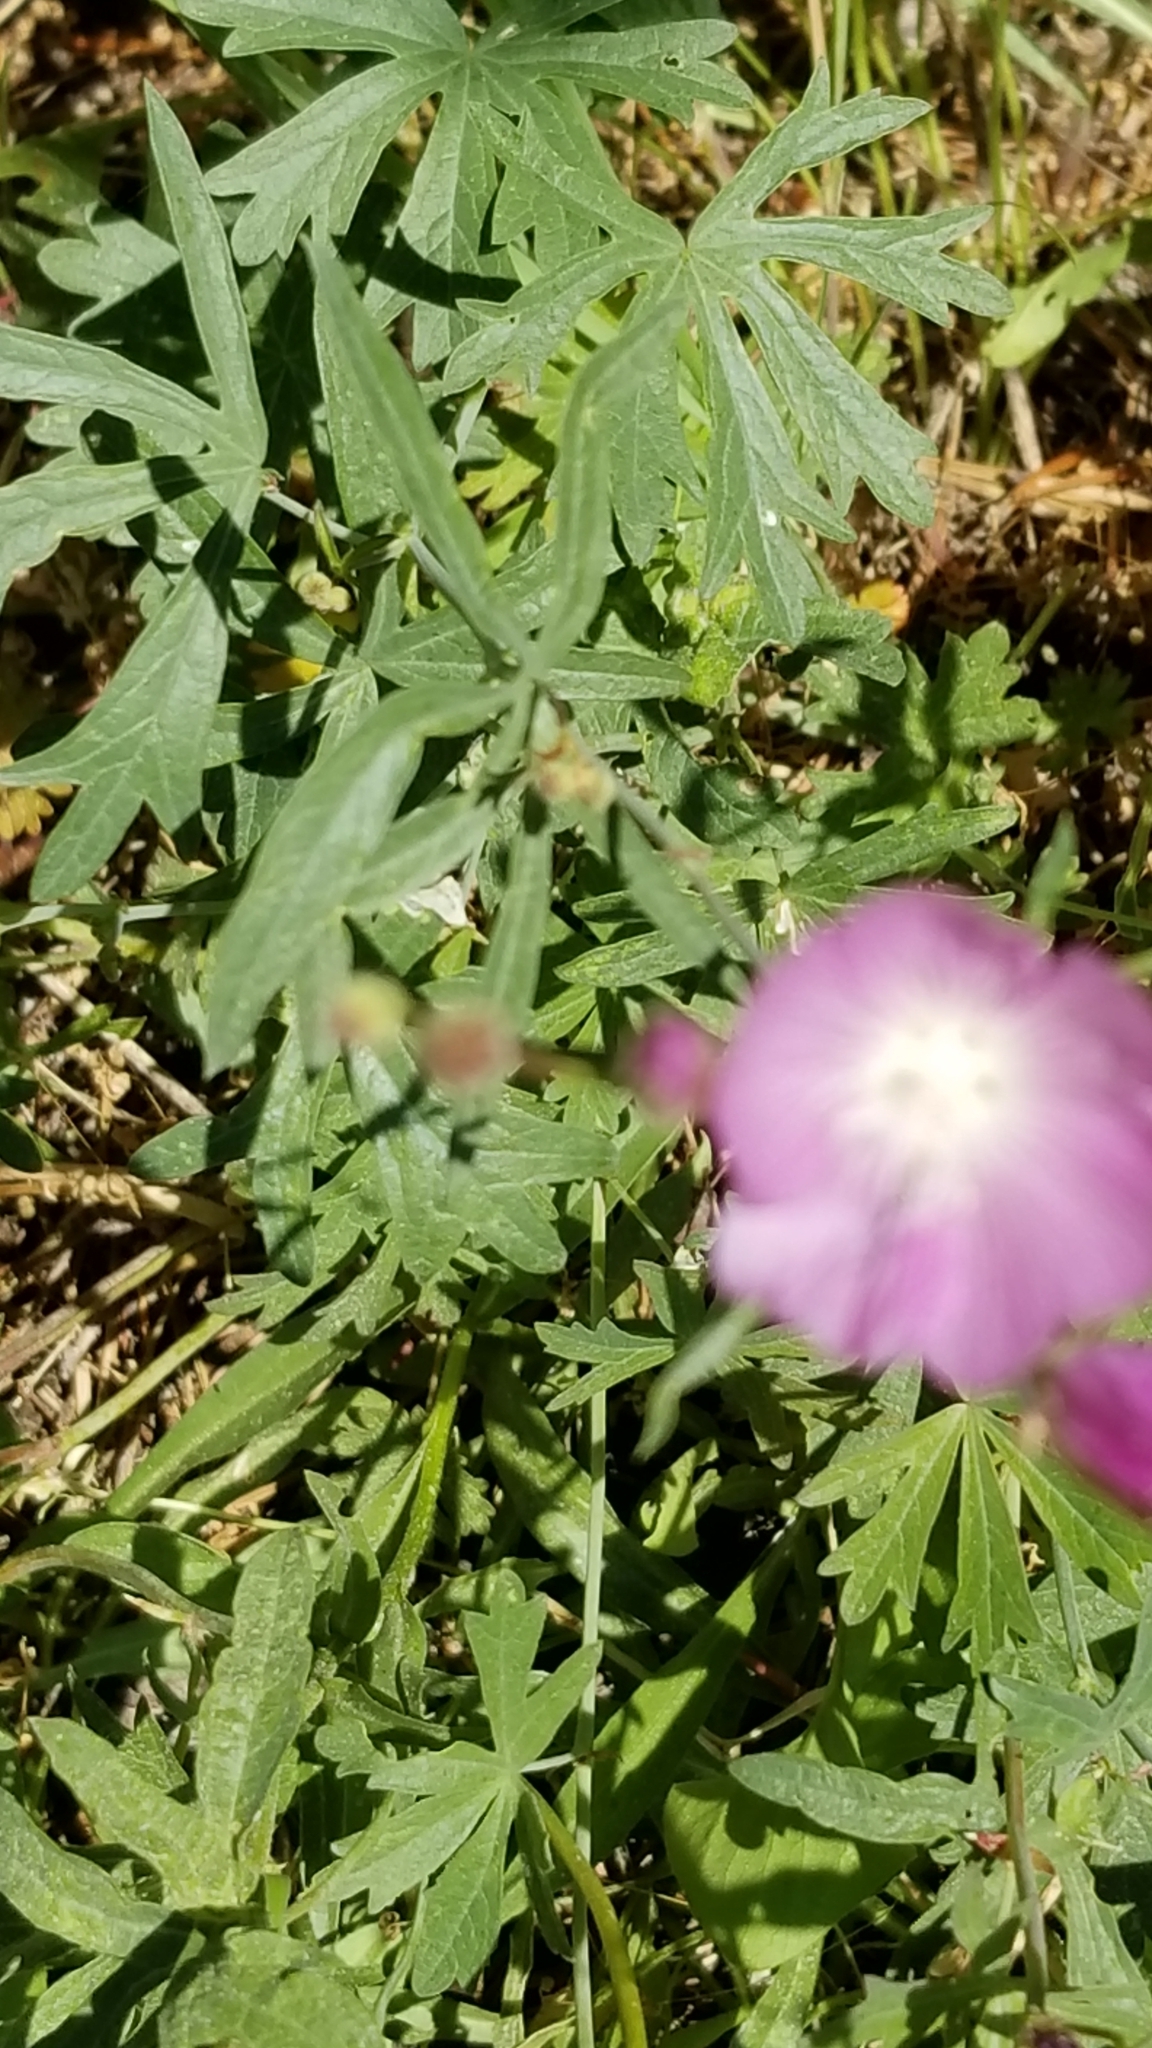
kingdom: Plantae
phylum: Tracheophyta
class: Magnoliopsida
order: Malvales
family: Malvaceae
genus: Sidalcea
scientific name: Sidalcea glaucescens
